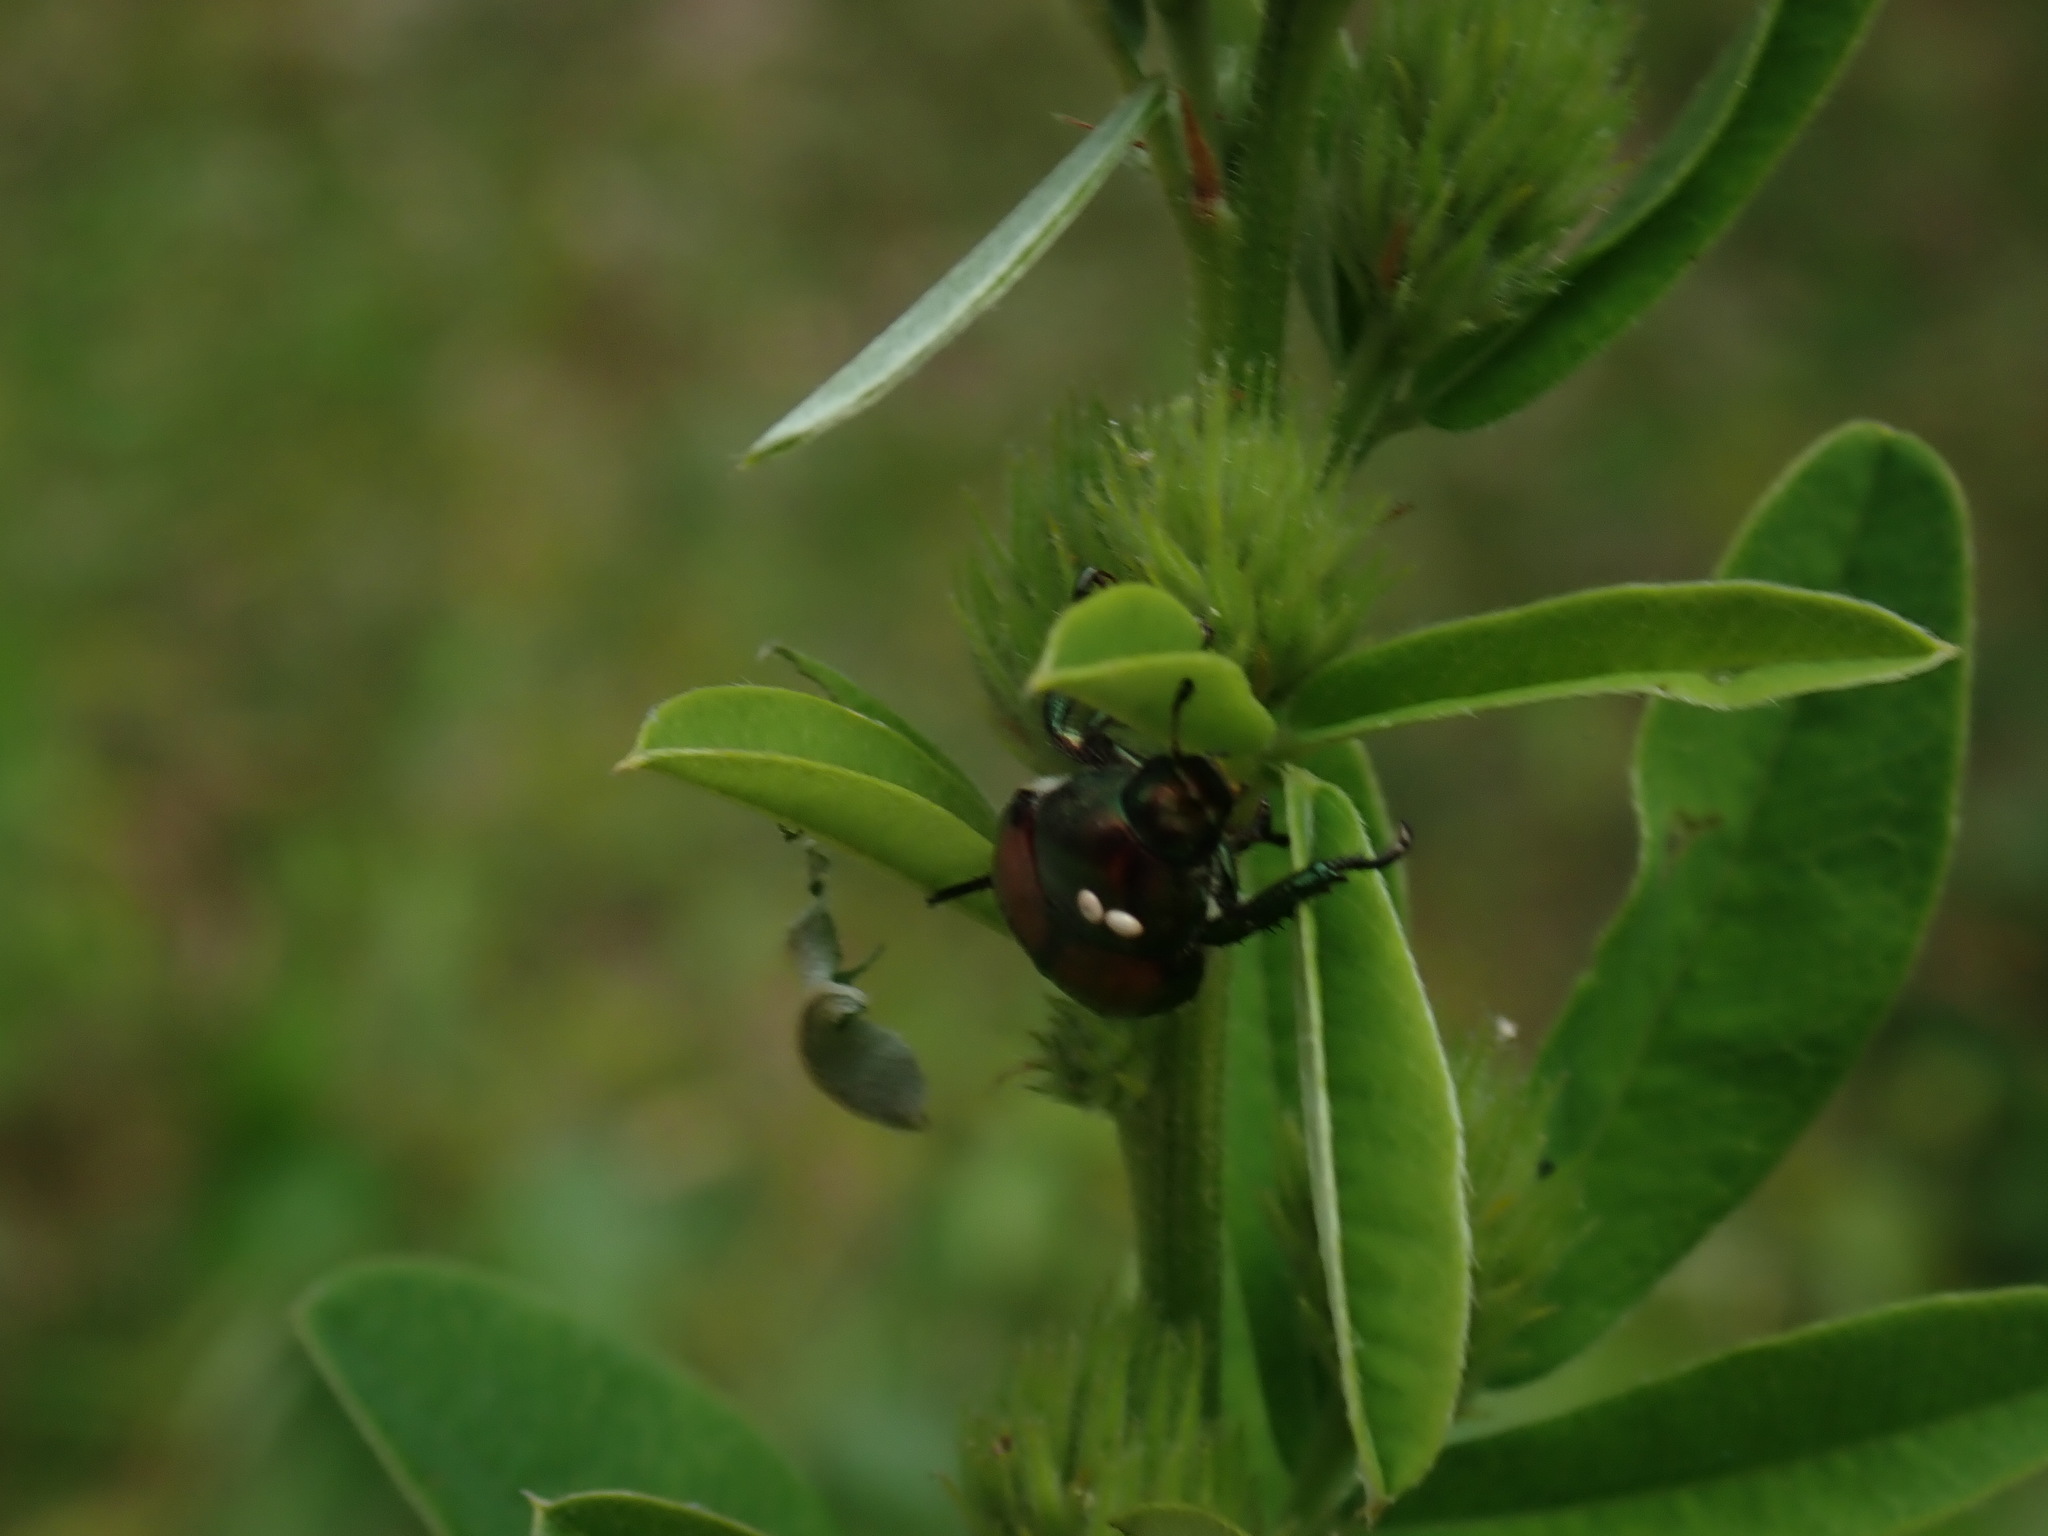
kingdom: Animalia
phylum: Arthropoda
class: Insecta
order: Coleoptera
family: Scarabaeidae
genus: Popillia
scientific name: Popillia japonica
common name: Japanese beetle
